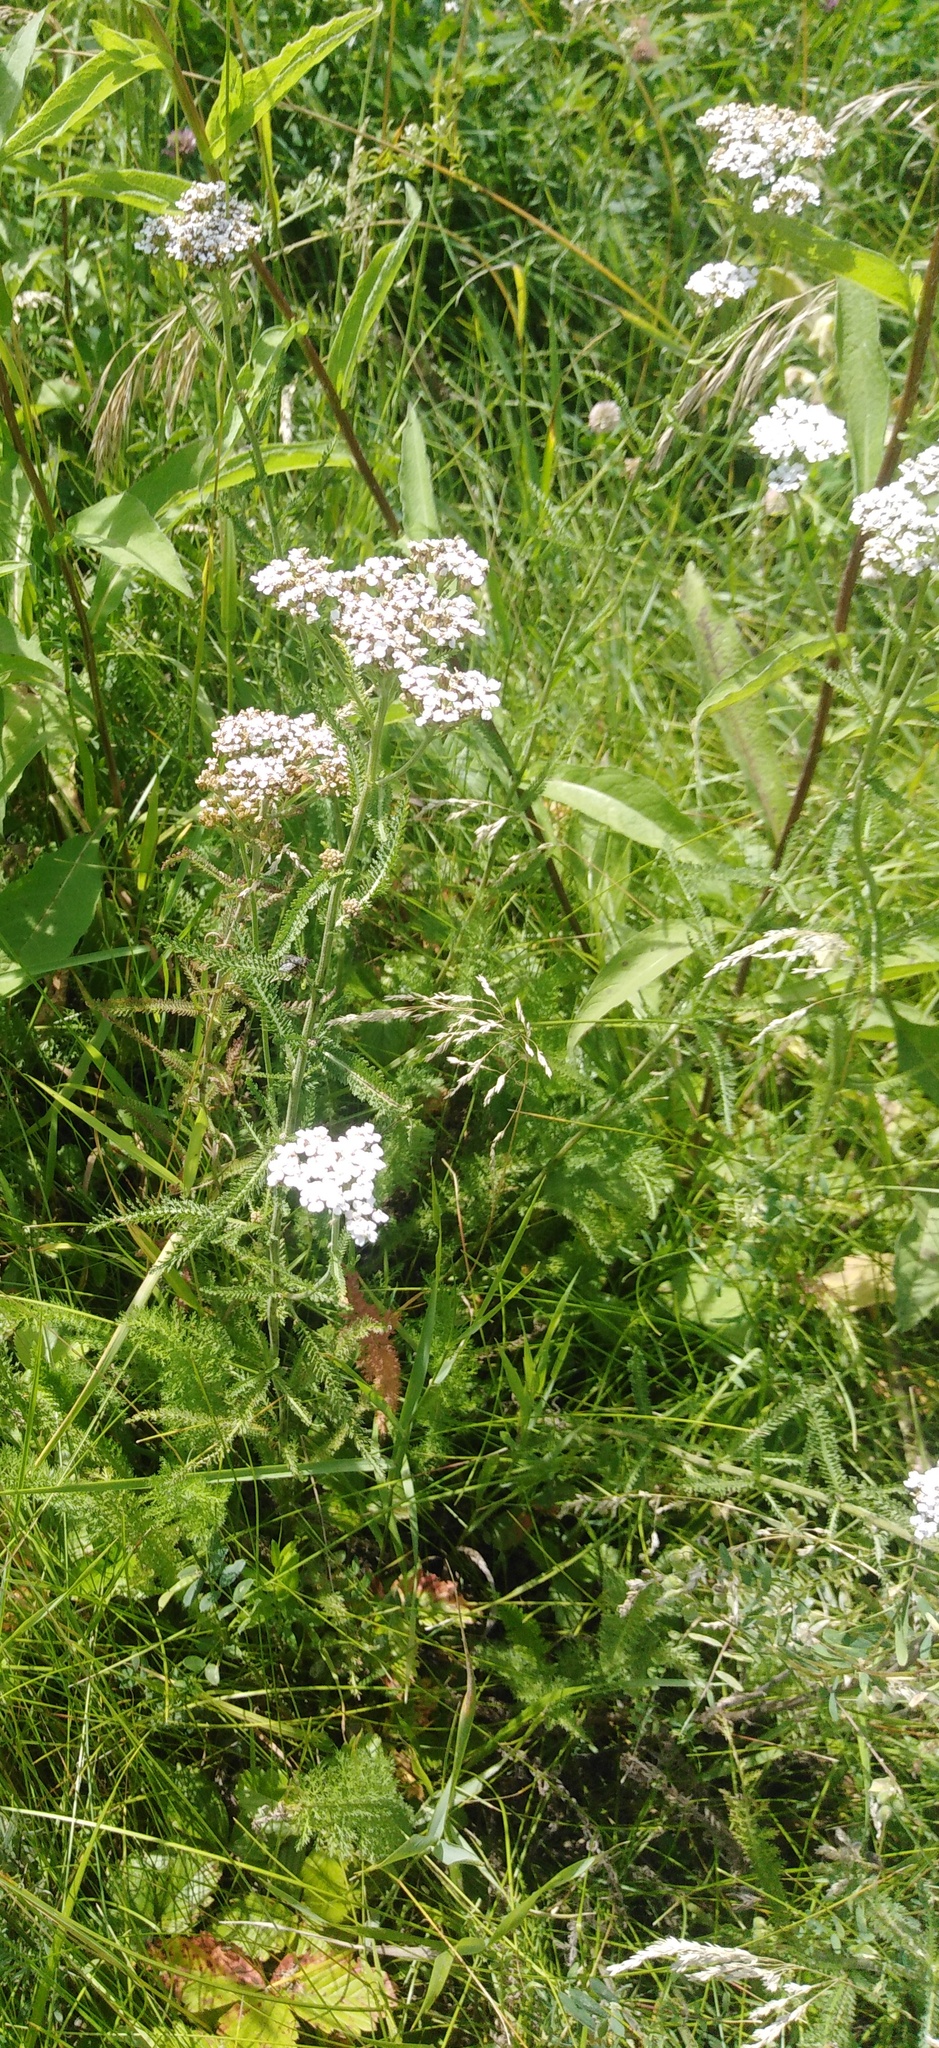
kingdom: Plantae
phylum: Tracheophyta
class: Magnoliopsida
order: Asterales
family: Asteraceae
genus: Achillea
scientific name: Achillea millefolium
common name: Yarrow
